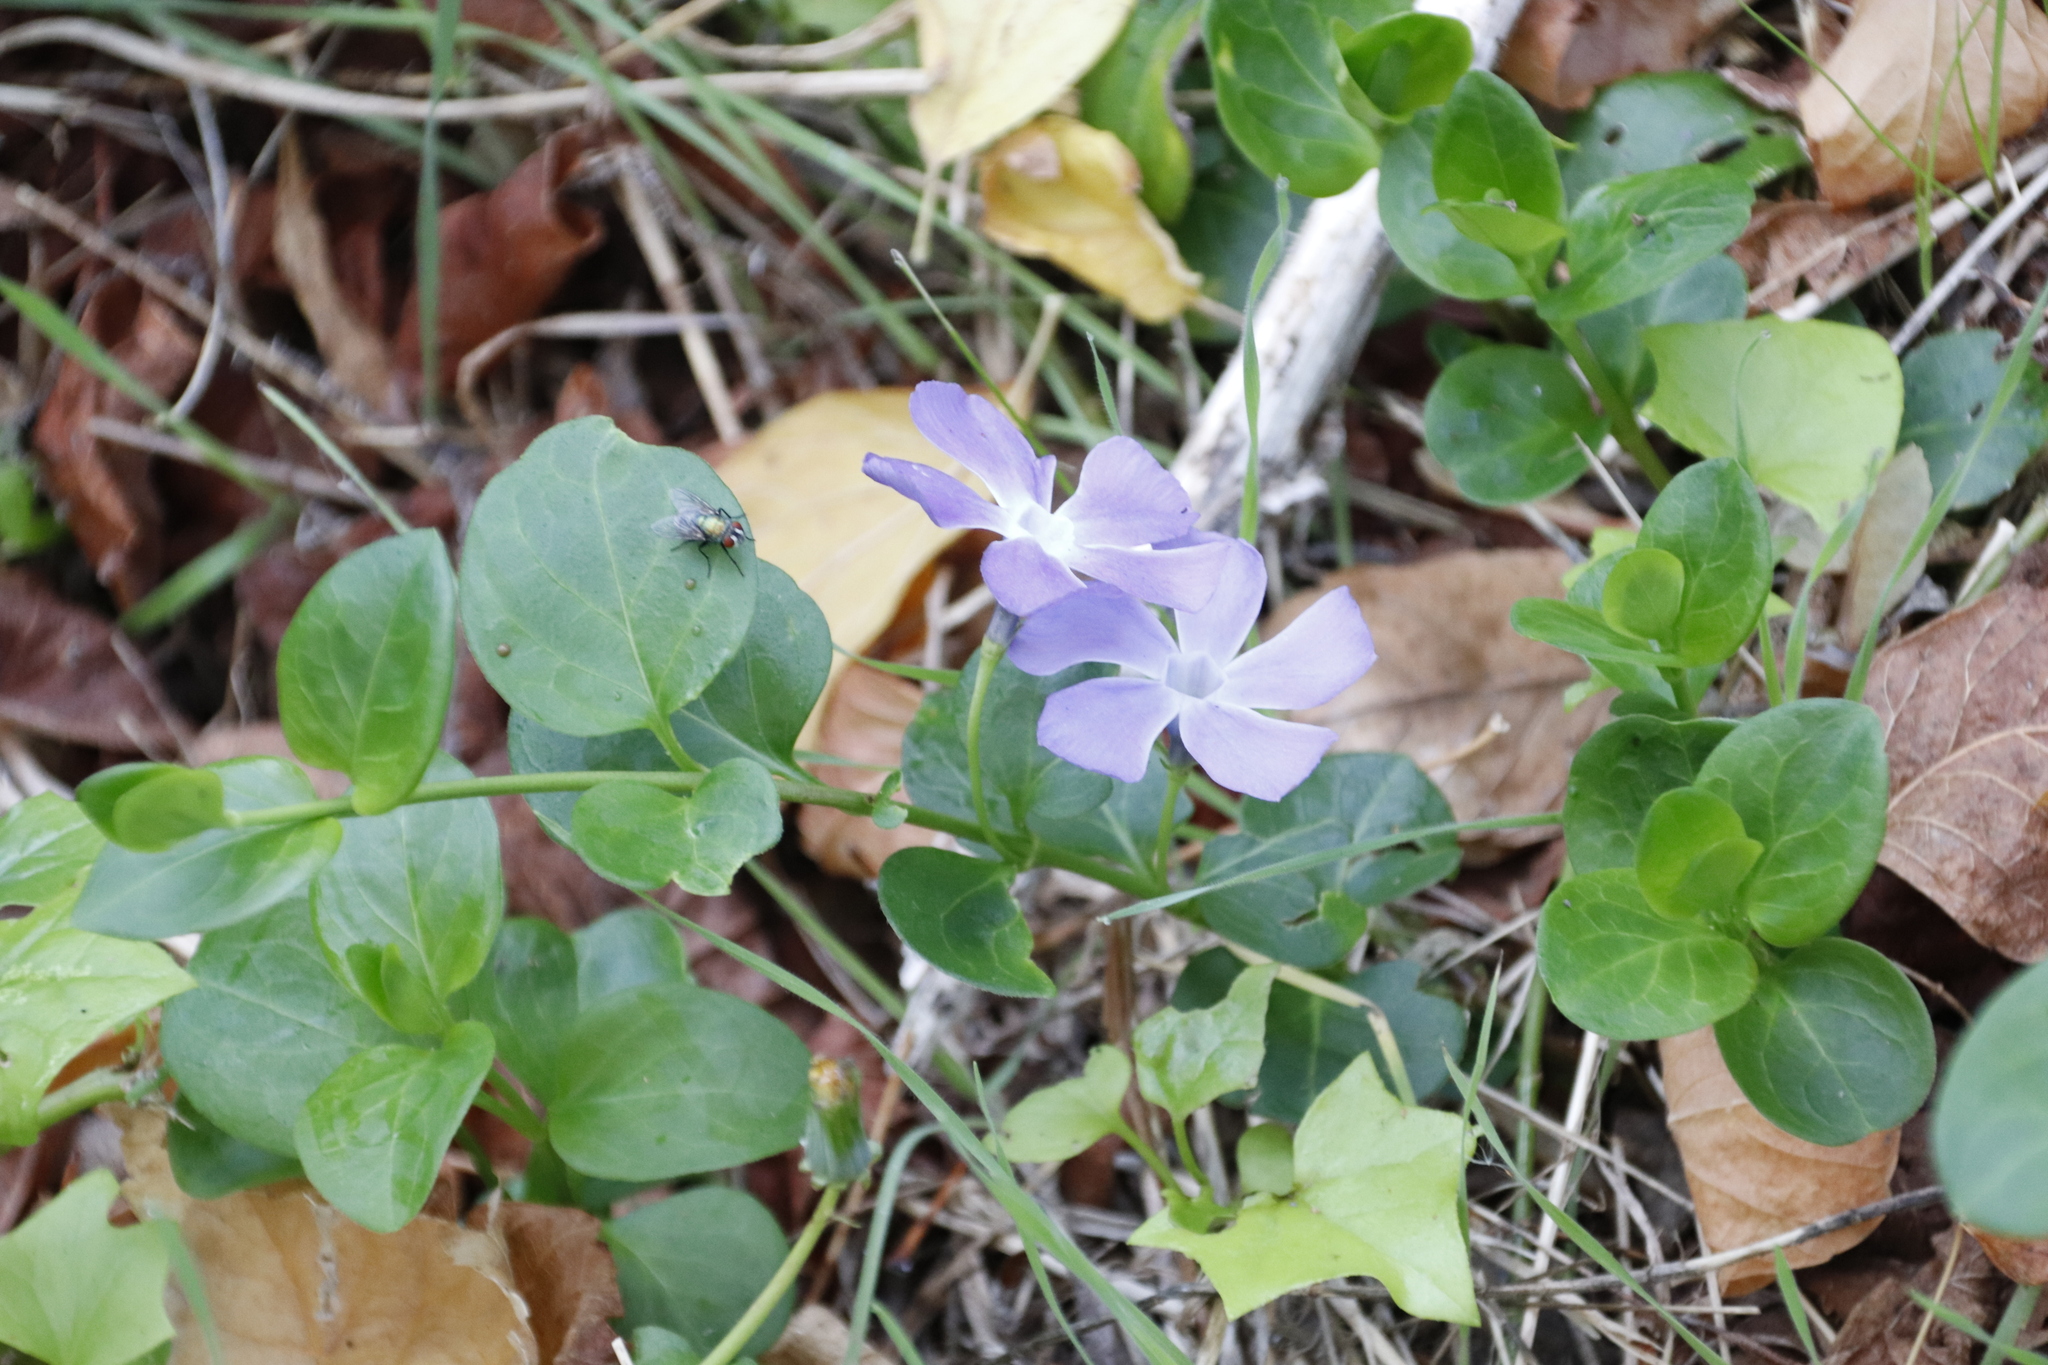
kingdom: Plantae
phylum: Tracheophyta
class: Magnoliopsida
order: Gentianales
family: Apocynaceae
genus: Vinca
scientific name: Vinca major
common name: Greater periwinkle
